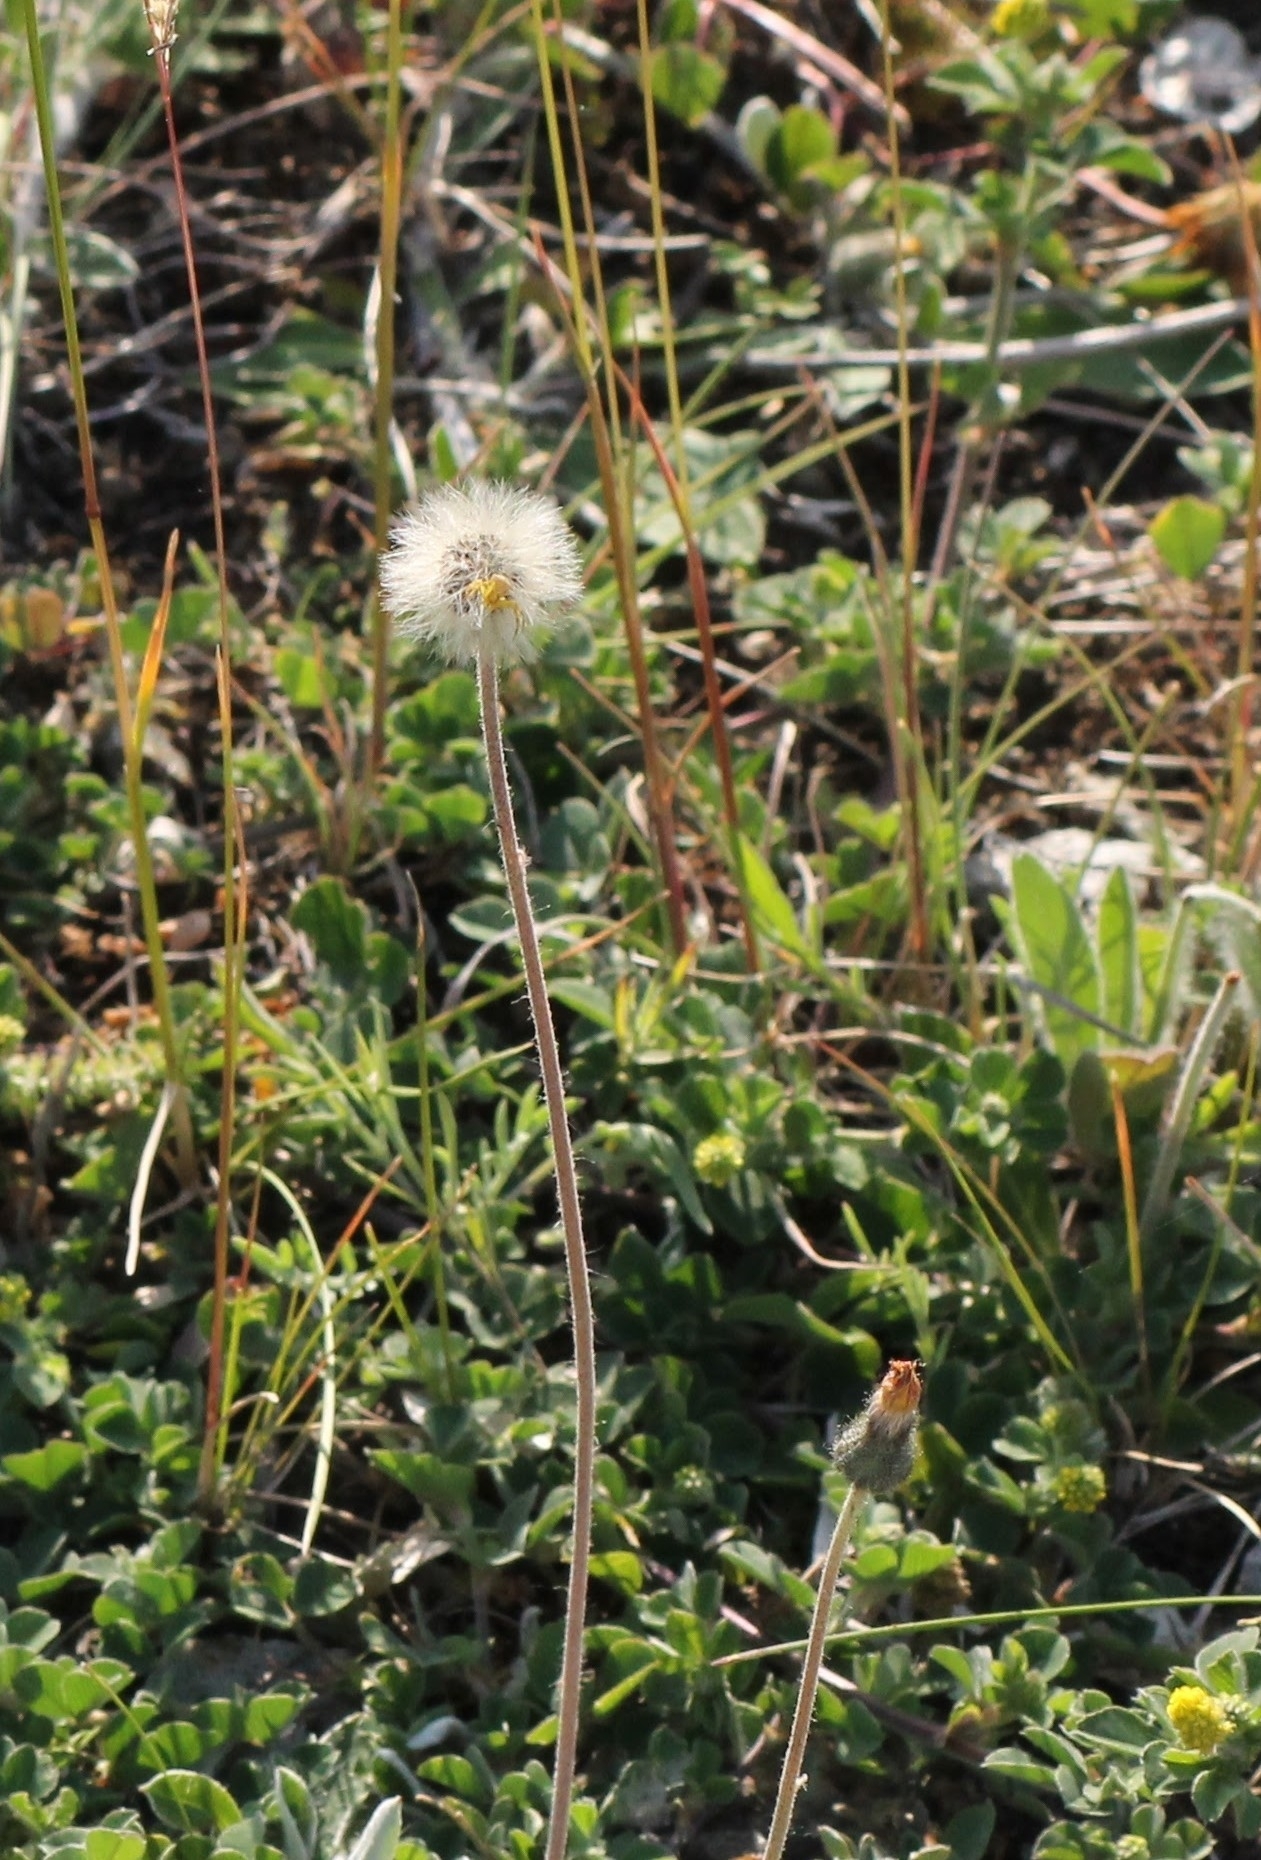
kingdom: Plantae
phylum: Tracheophyta
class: Magnoliopsida
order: Asterales
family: Asteraceae
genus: Pilosella
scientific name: Pilosella officinarum
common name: Mouse-ear hawkweed
